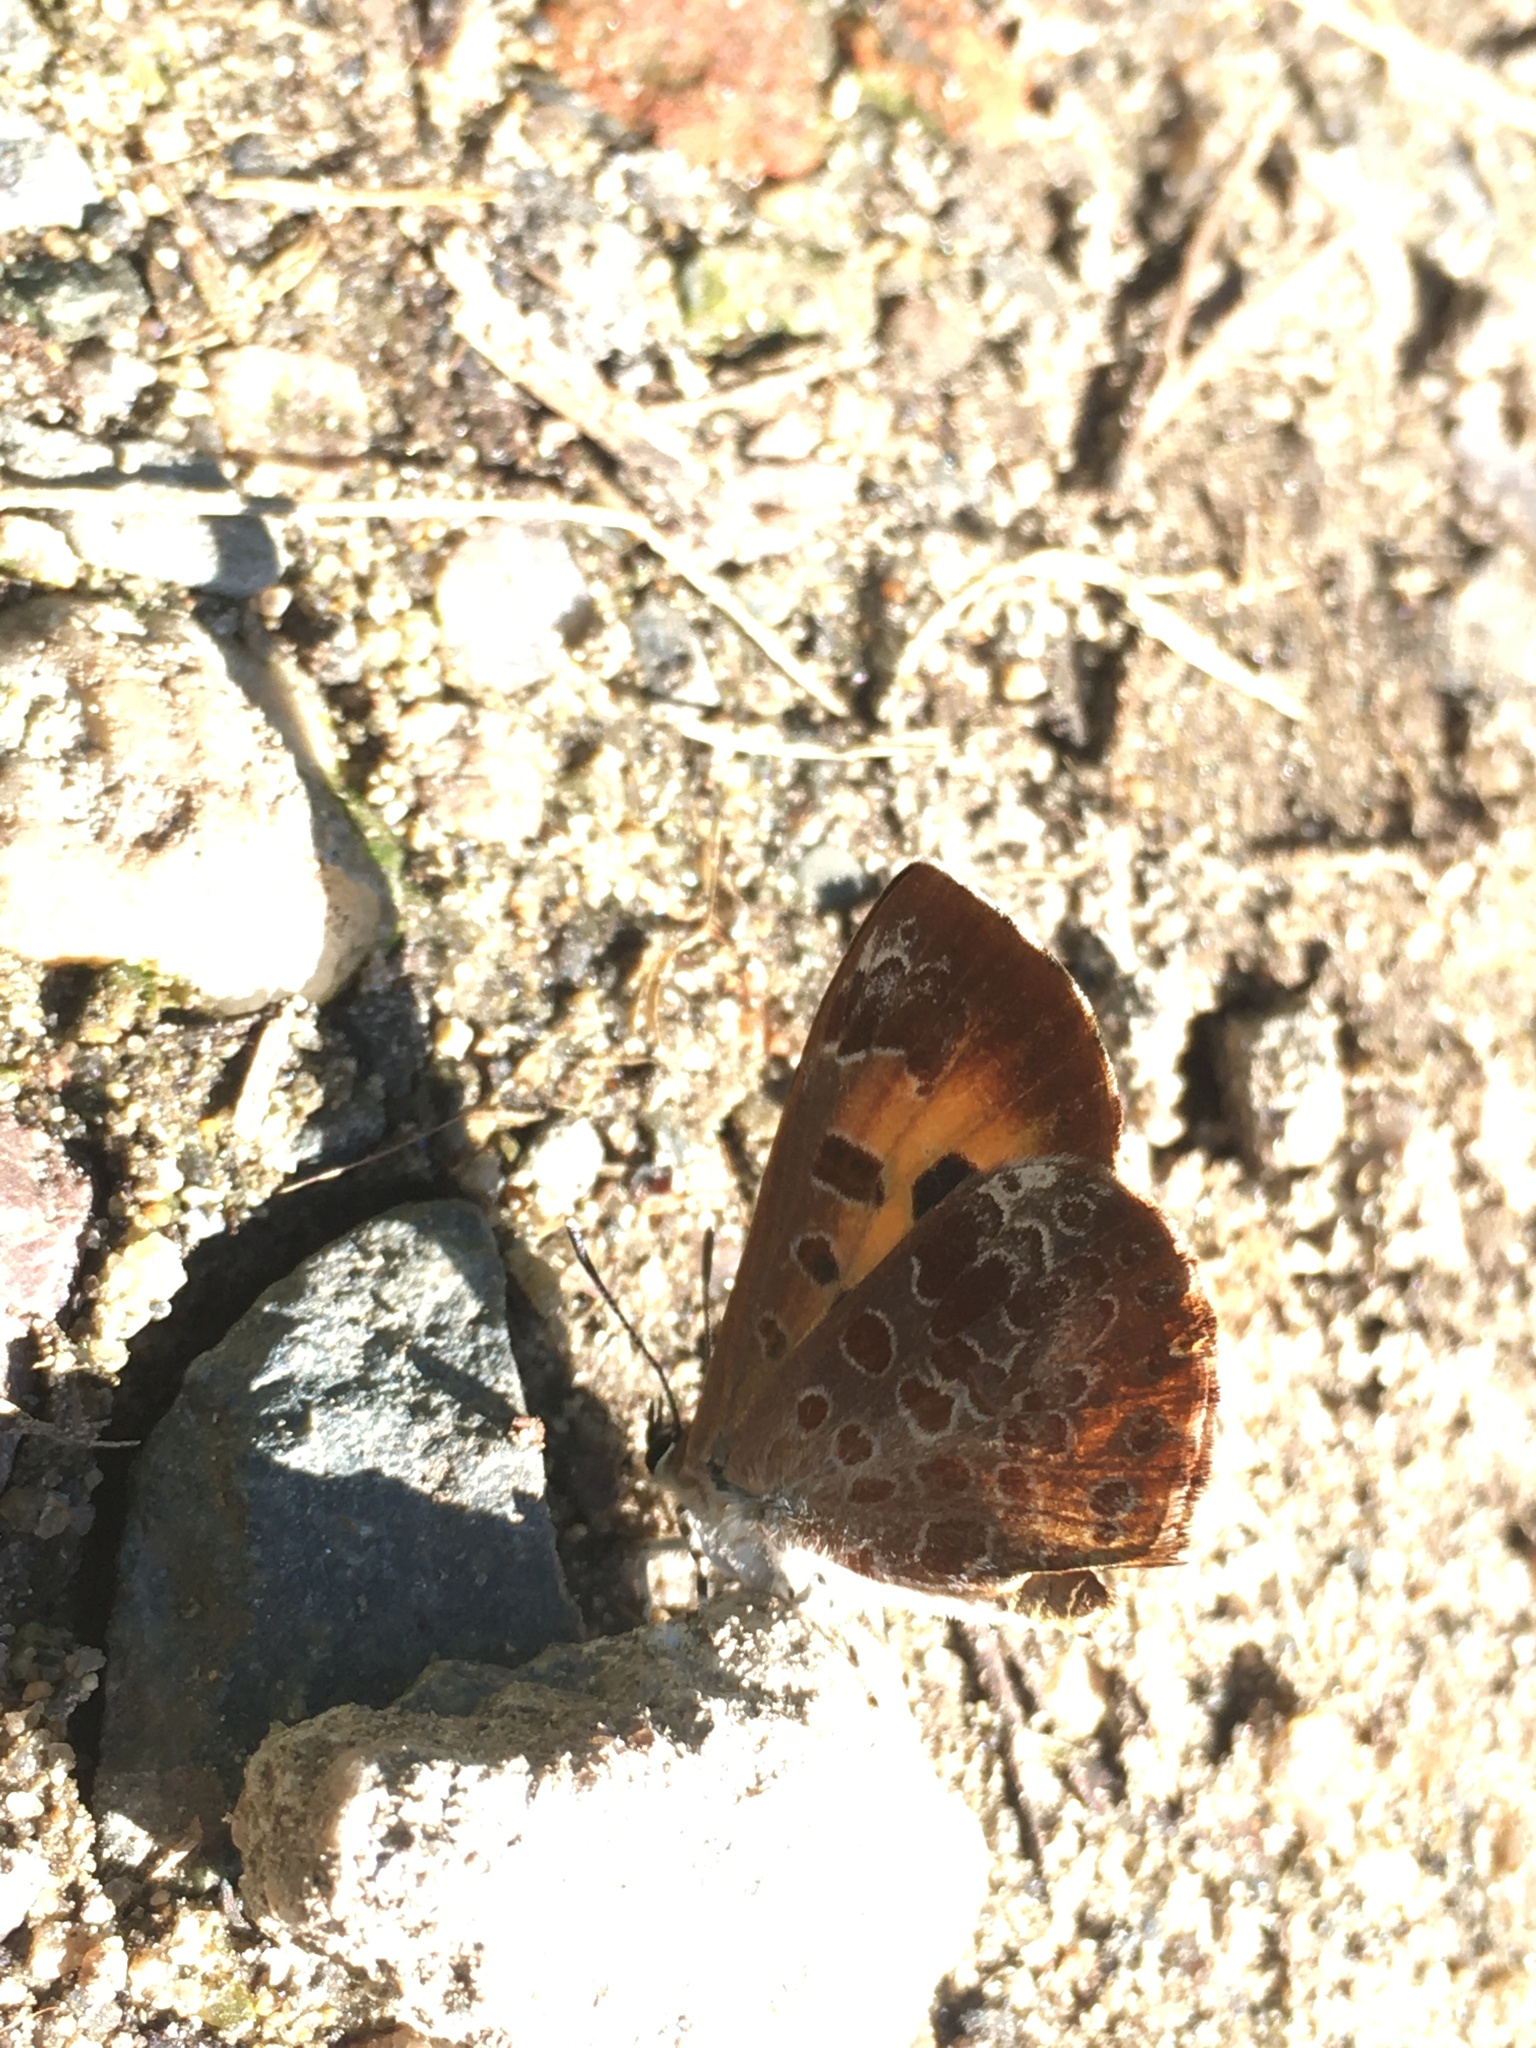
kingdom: Animalia
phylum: Arthropoda
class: Insecta
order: Lepidoptera
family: Lycaenidae
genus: Feniseca
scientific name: Feniseca tarquinius
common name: Harvester
